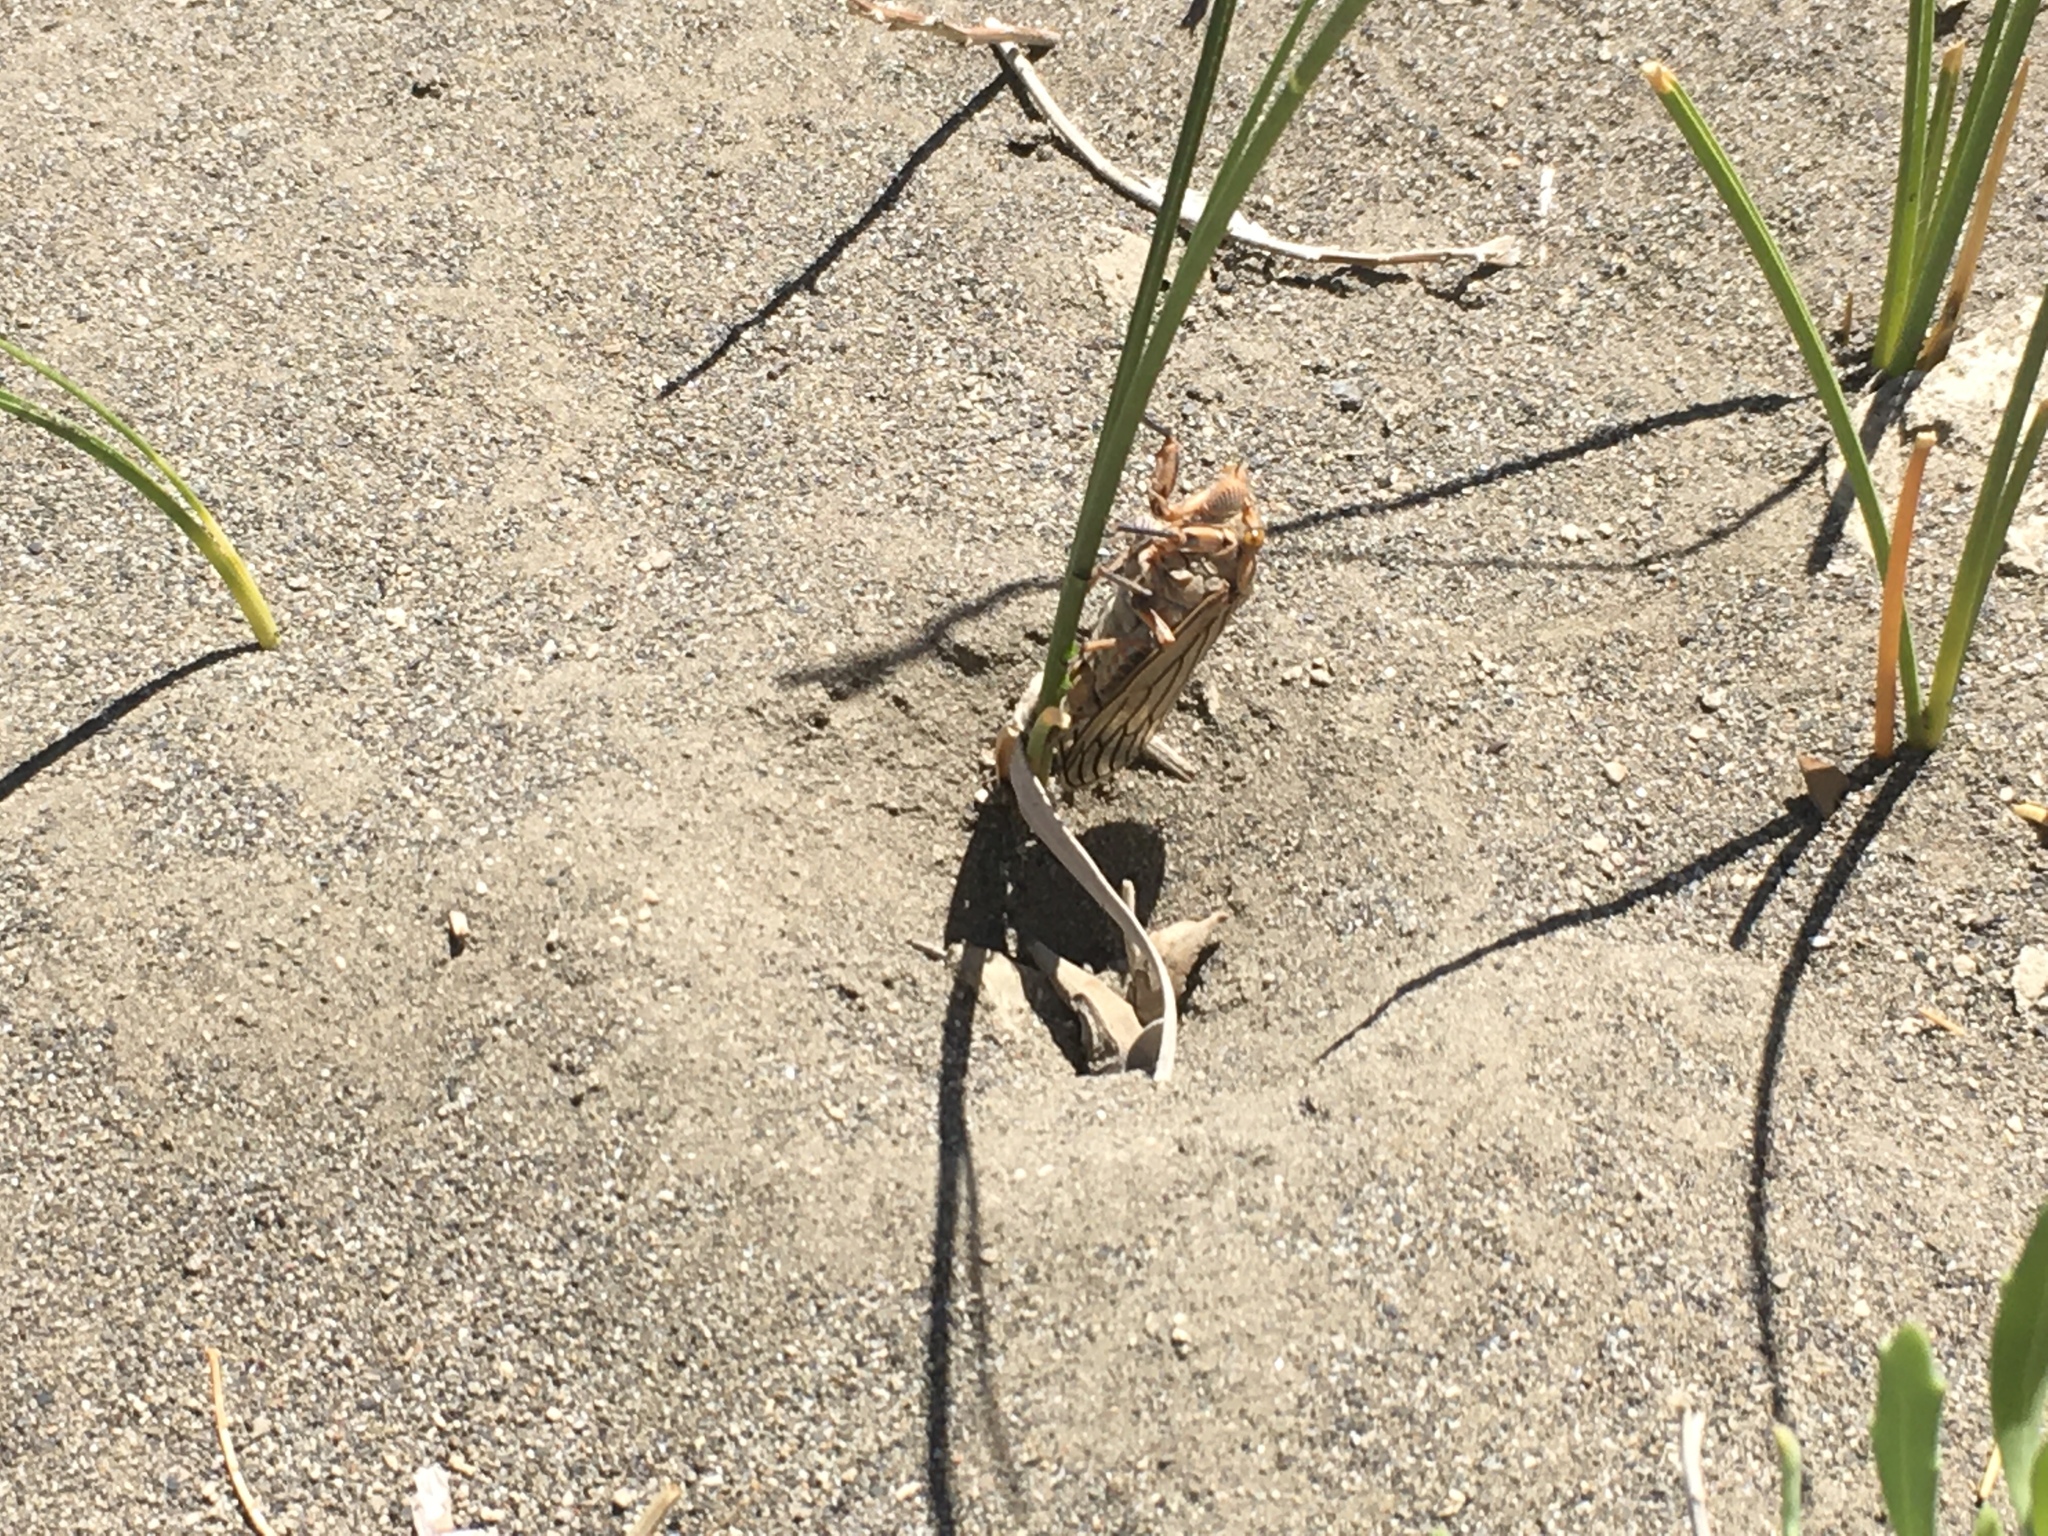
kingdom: Animalia
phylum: Arthropoda
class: Insecta
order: Hemiptera
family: Cicadidae
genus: Calliopsida
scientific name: Calliopsida cinnabarina
